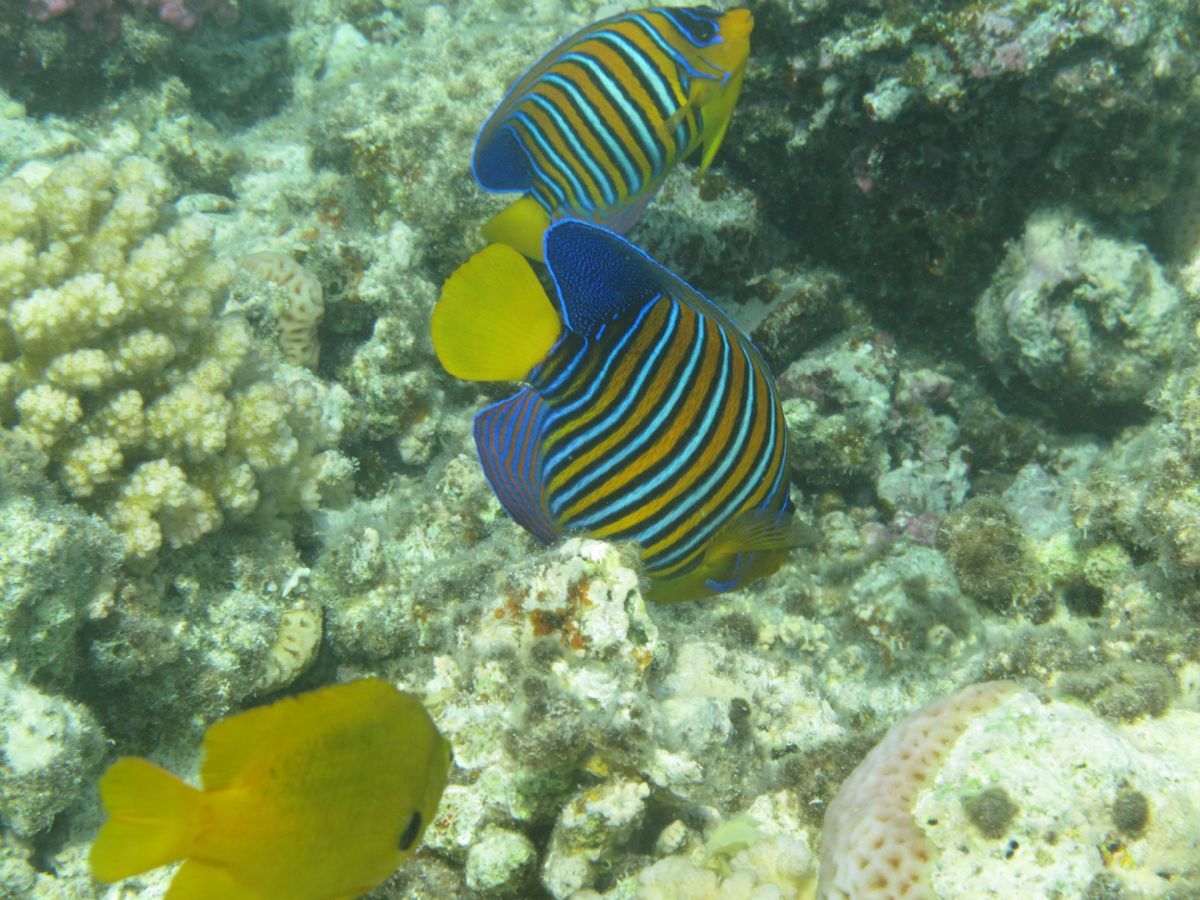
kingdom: Animalia
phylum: Chordata
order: Perciformes
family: Pomacanthidae
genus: Pygoplites
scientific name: Pygoplites diacanthus
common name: Regal angelfish
